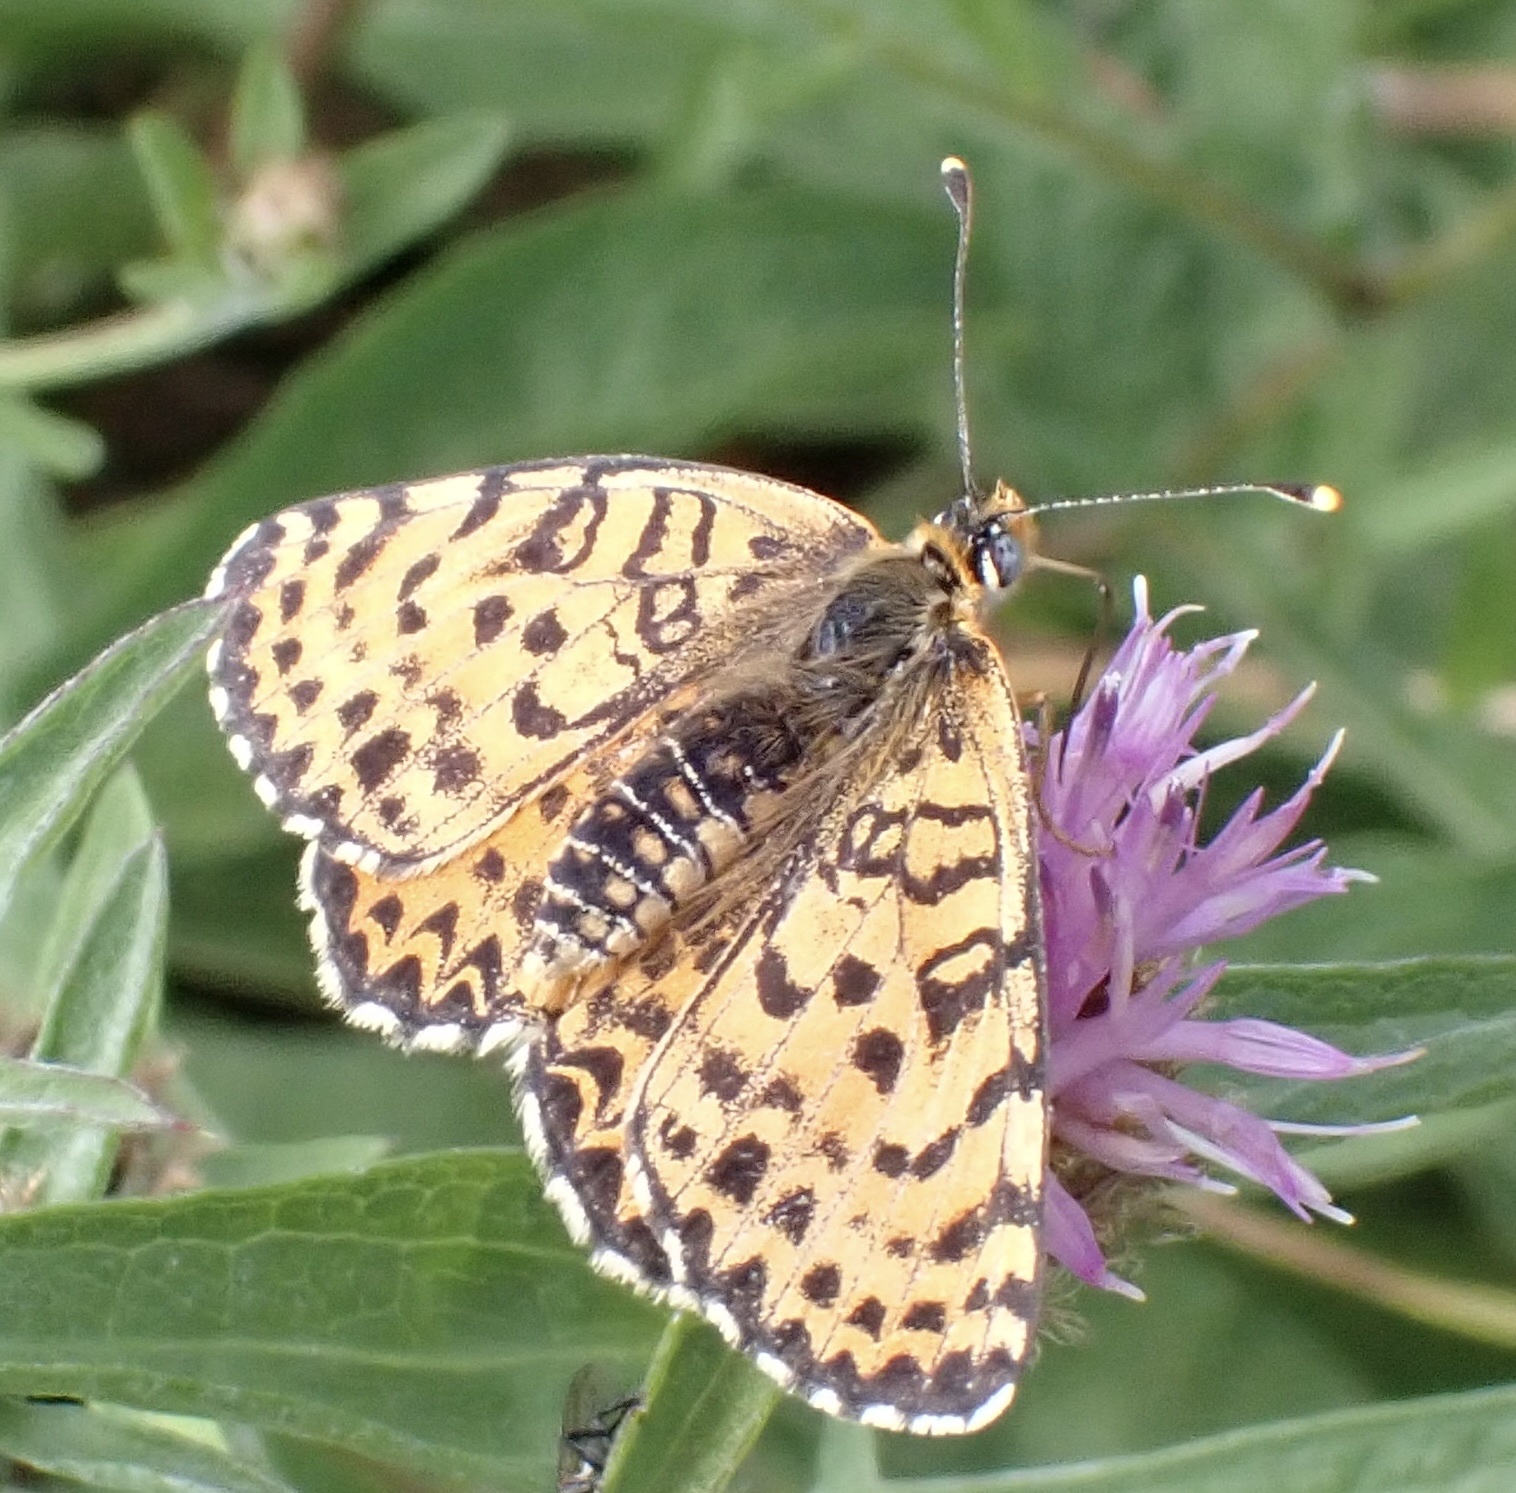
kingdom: Animalia
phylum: Arthropoda
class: Insecta
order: Lepidoptera
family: Nymphalidae
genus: Melitaea
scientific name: Melitaea didyma
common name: Spotted fritillary
